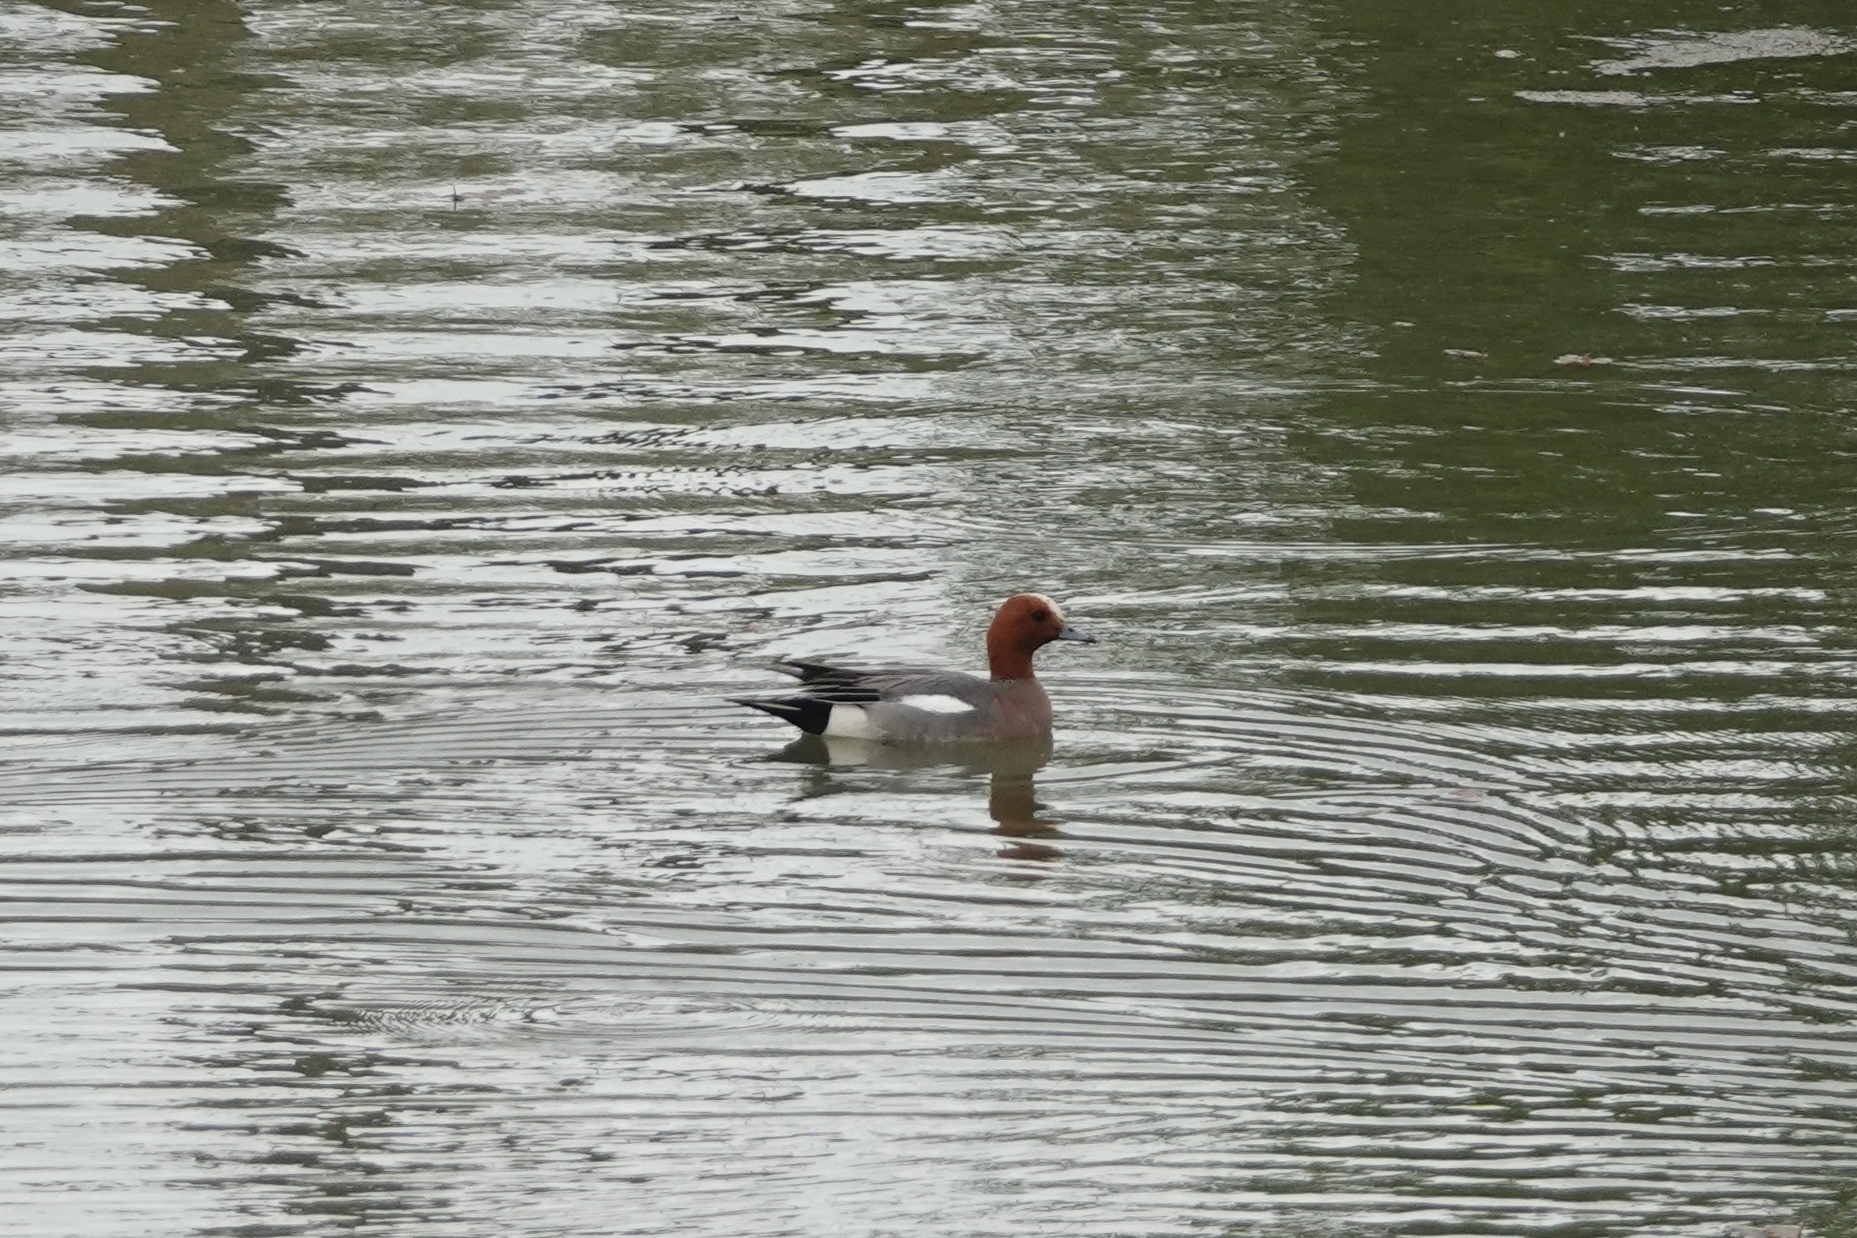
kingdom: Animalia
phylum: Chordata
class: Aves
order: Anseriformes
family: Anatidae
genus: Mareca
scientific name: Mareca penelope
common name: Eurasian wigeon
